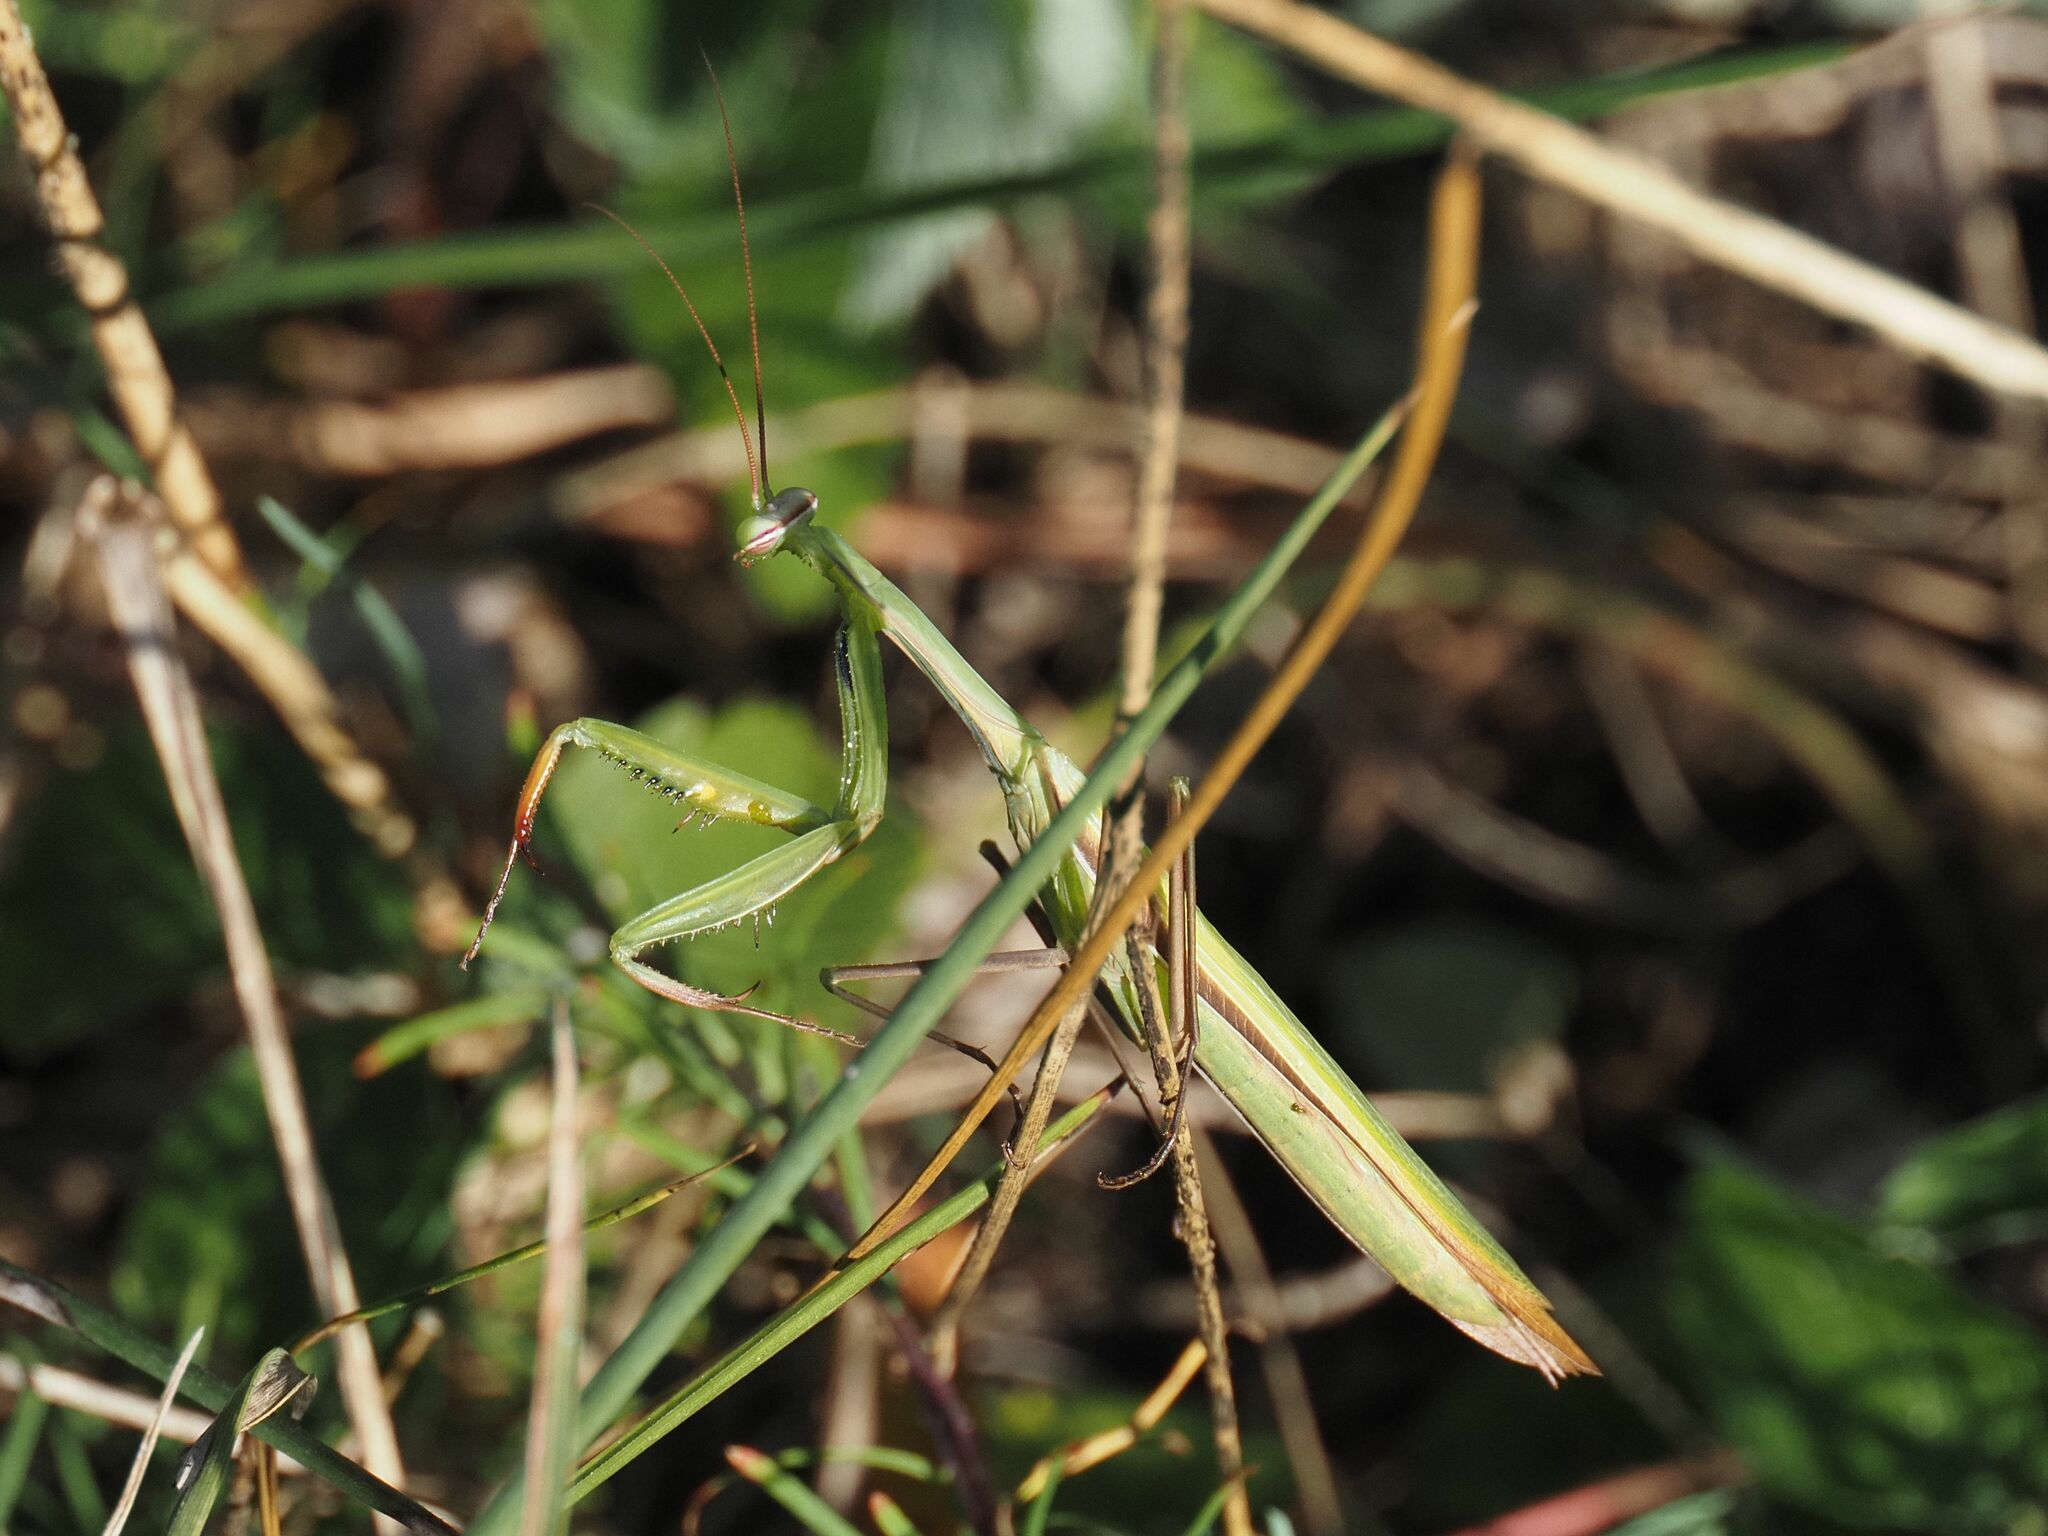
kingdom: Animalia
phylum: Arthropoda
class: Insecta
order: Mantodea
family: Mantidae
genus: Mantis
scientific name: Mantis religiosa
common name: Praying mantis
